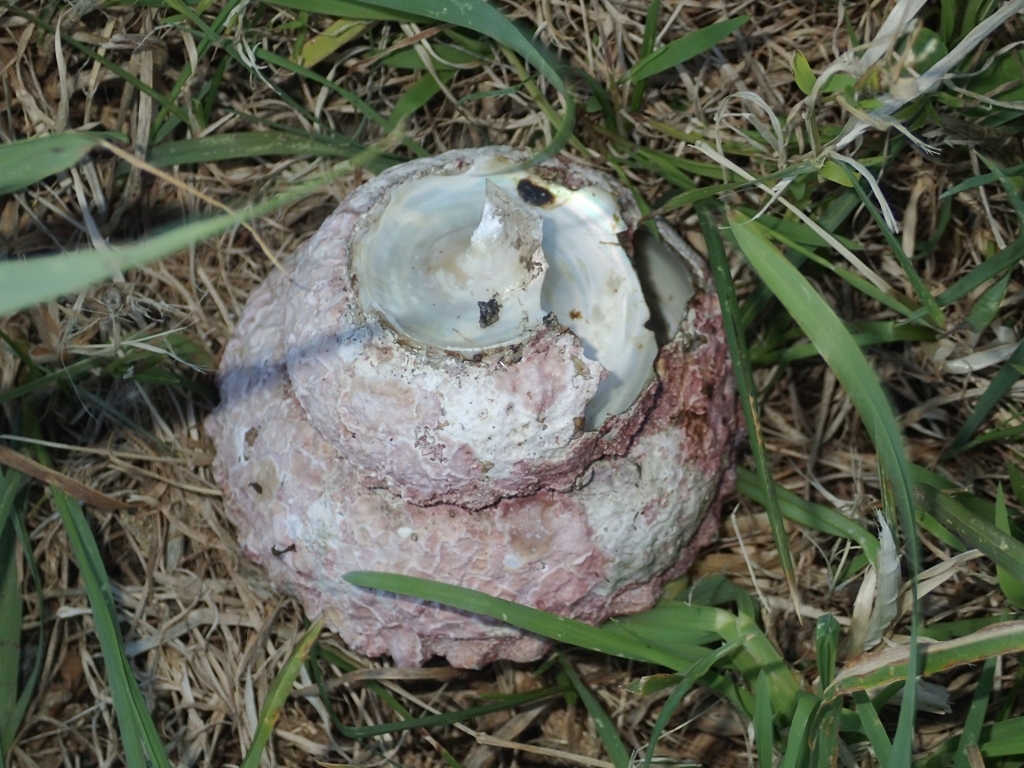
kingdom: Animalia
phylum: Mollusca
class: Gastropoda
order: Trochida
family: Turbinidae
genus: Cookia
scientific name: Cookia sulcata
